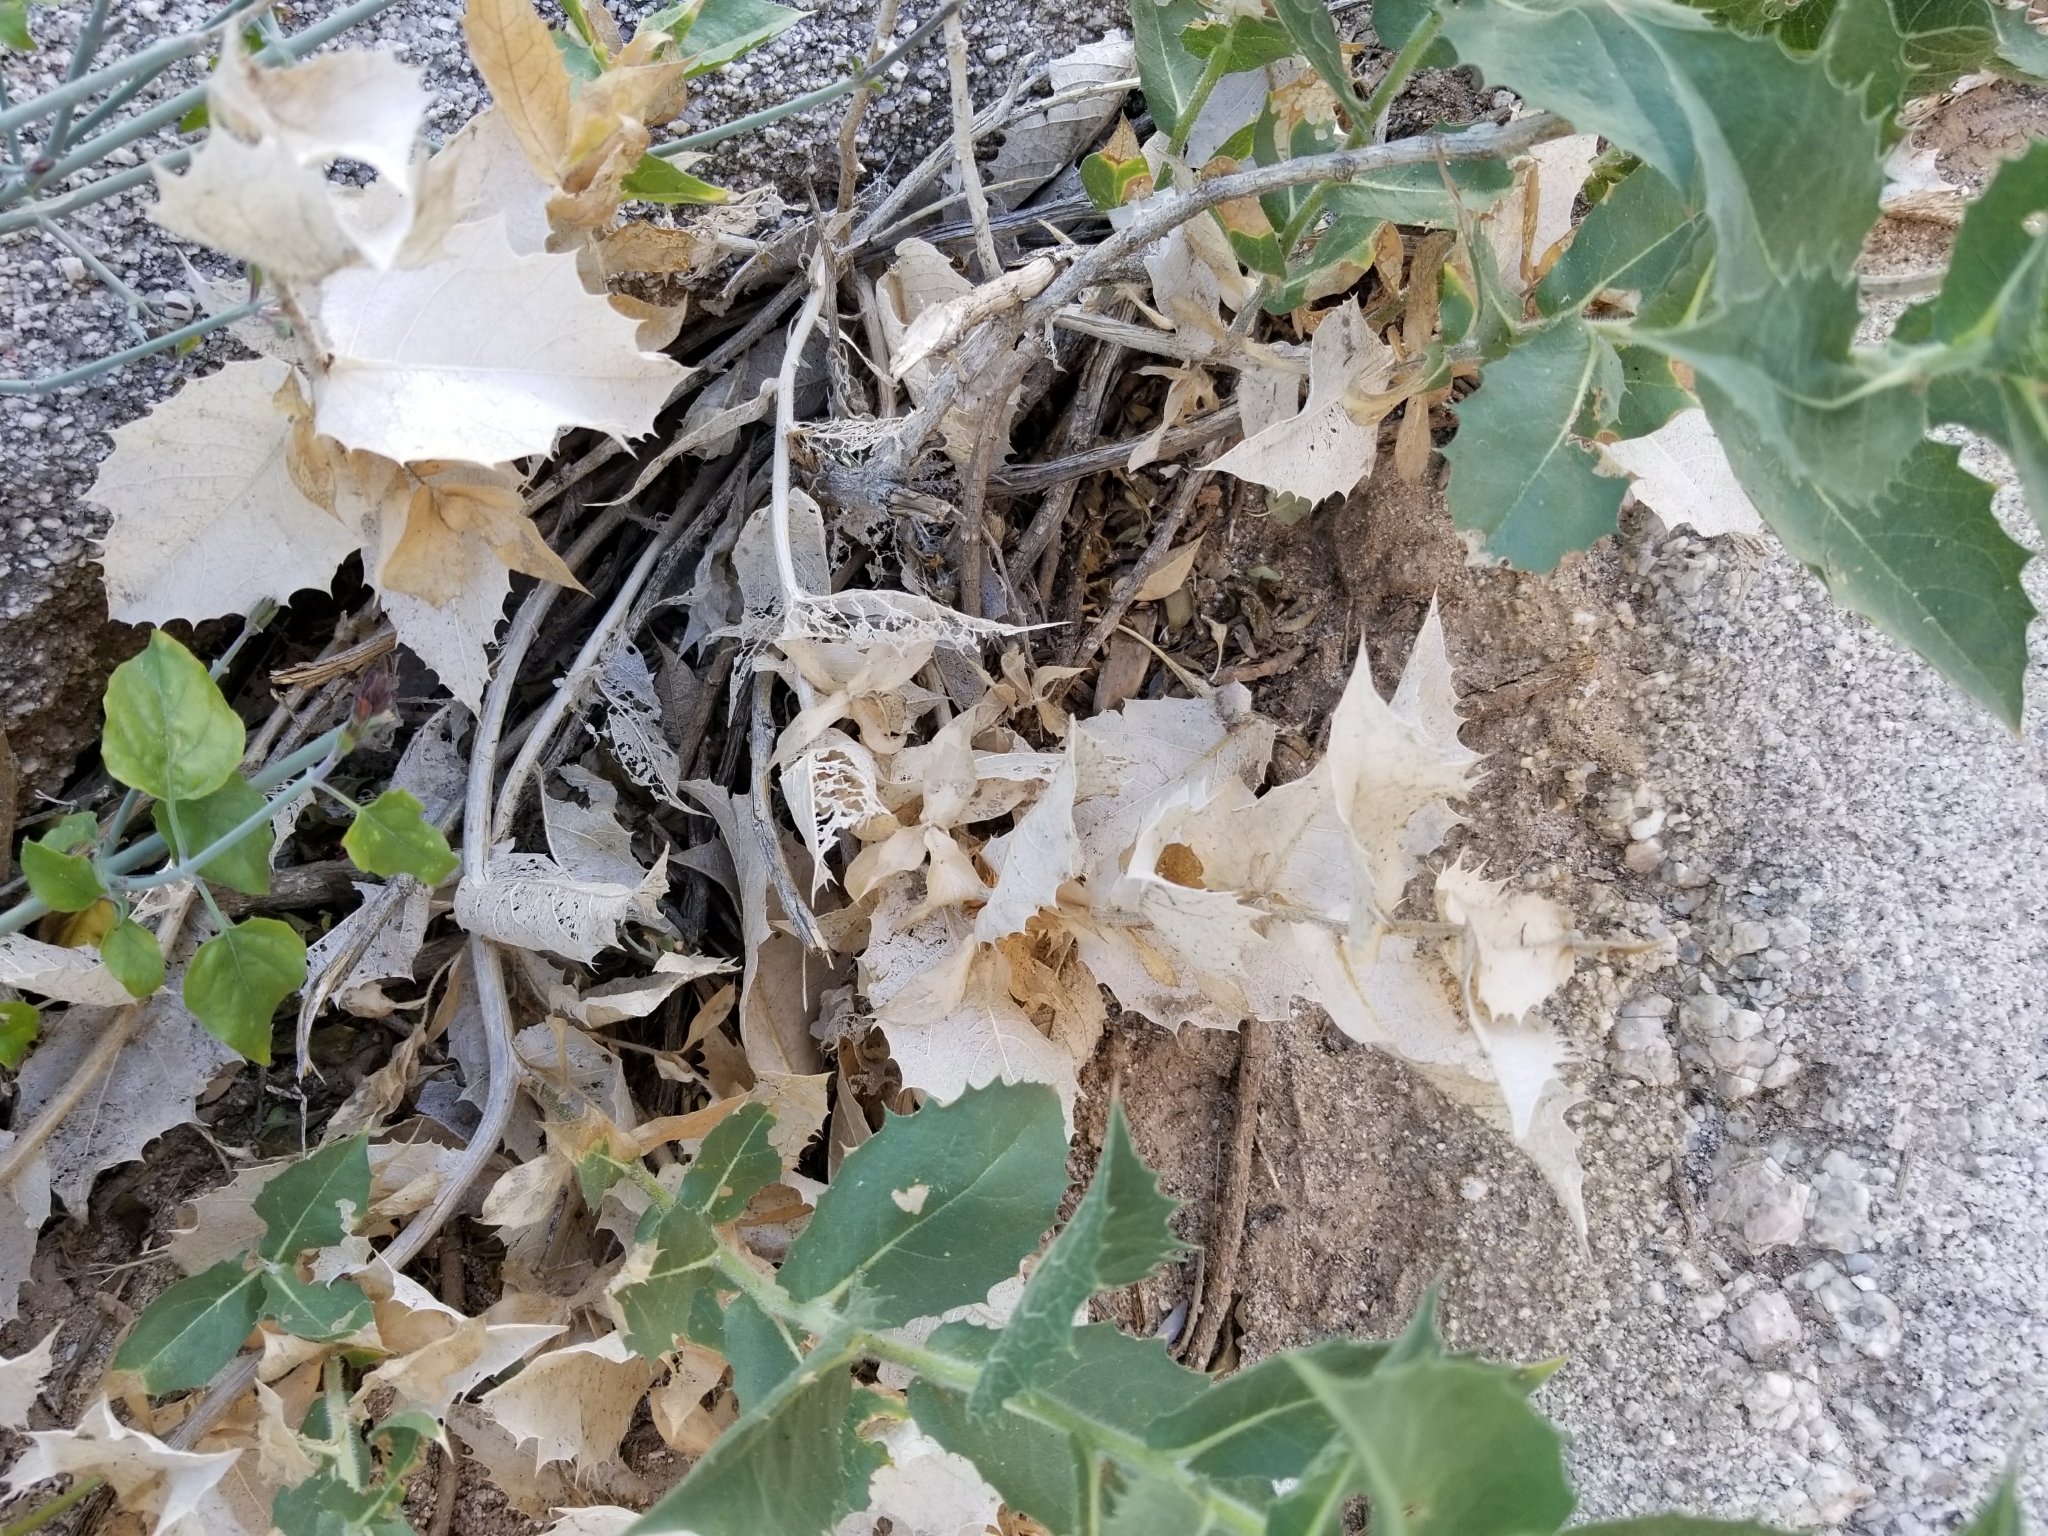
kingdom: Plantae
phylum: Tracheophyta
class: Magnoliopsida
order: Asterales
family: Asteraceae
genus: Ambrosia
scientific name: Ambrosia ilicifolia
